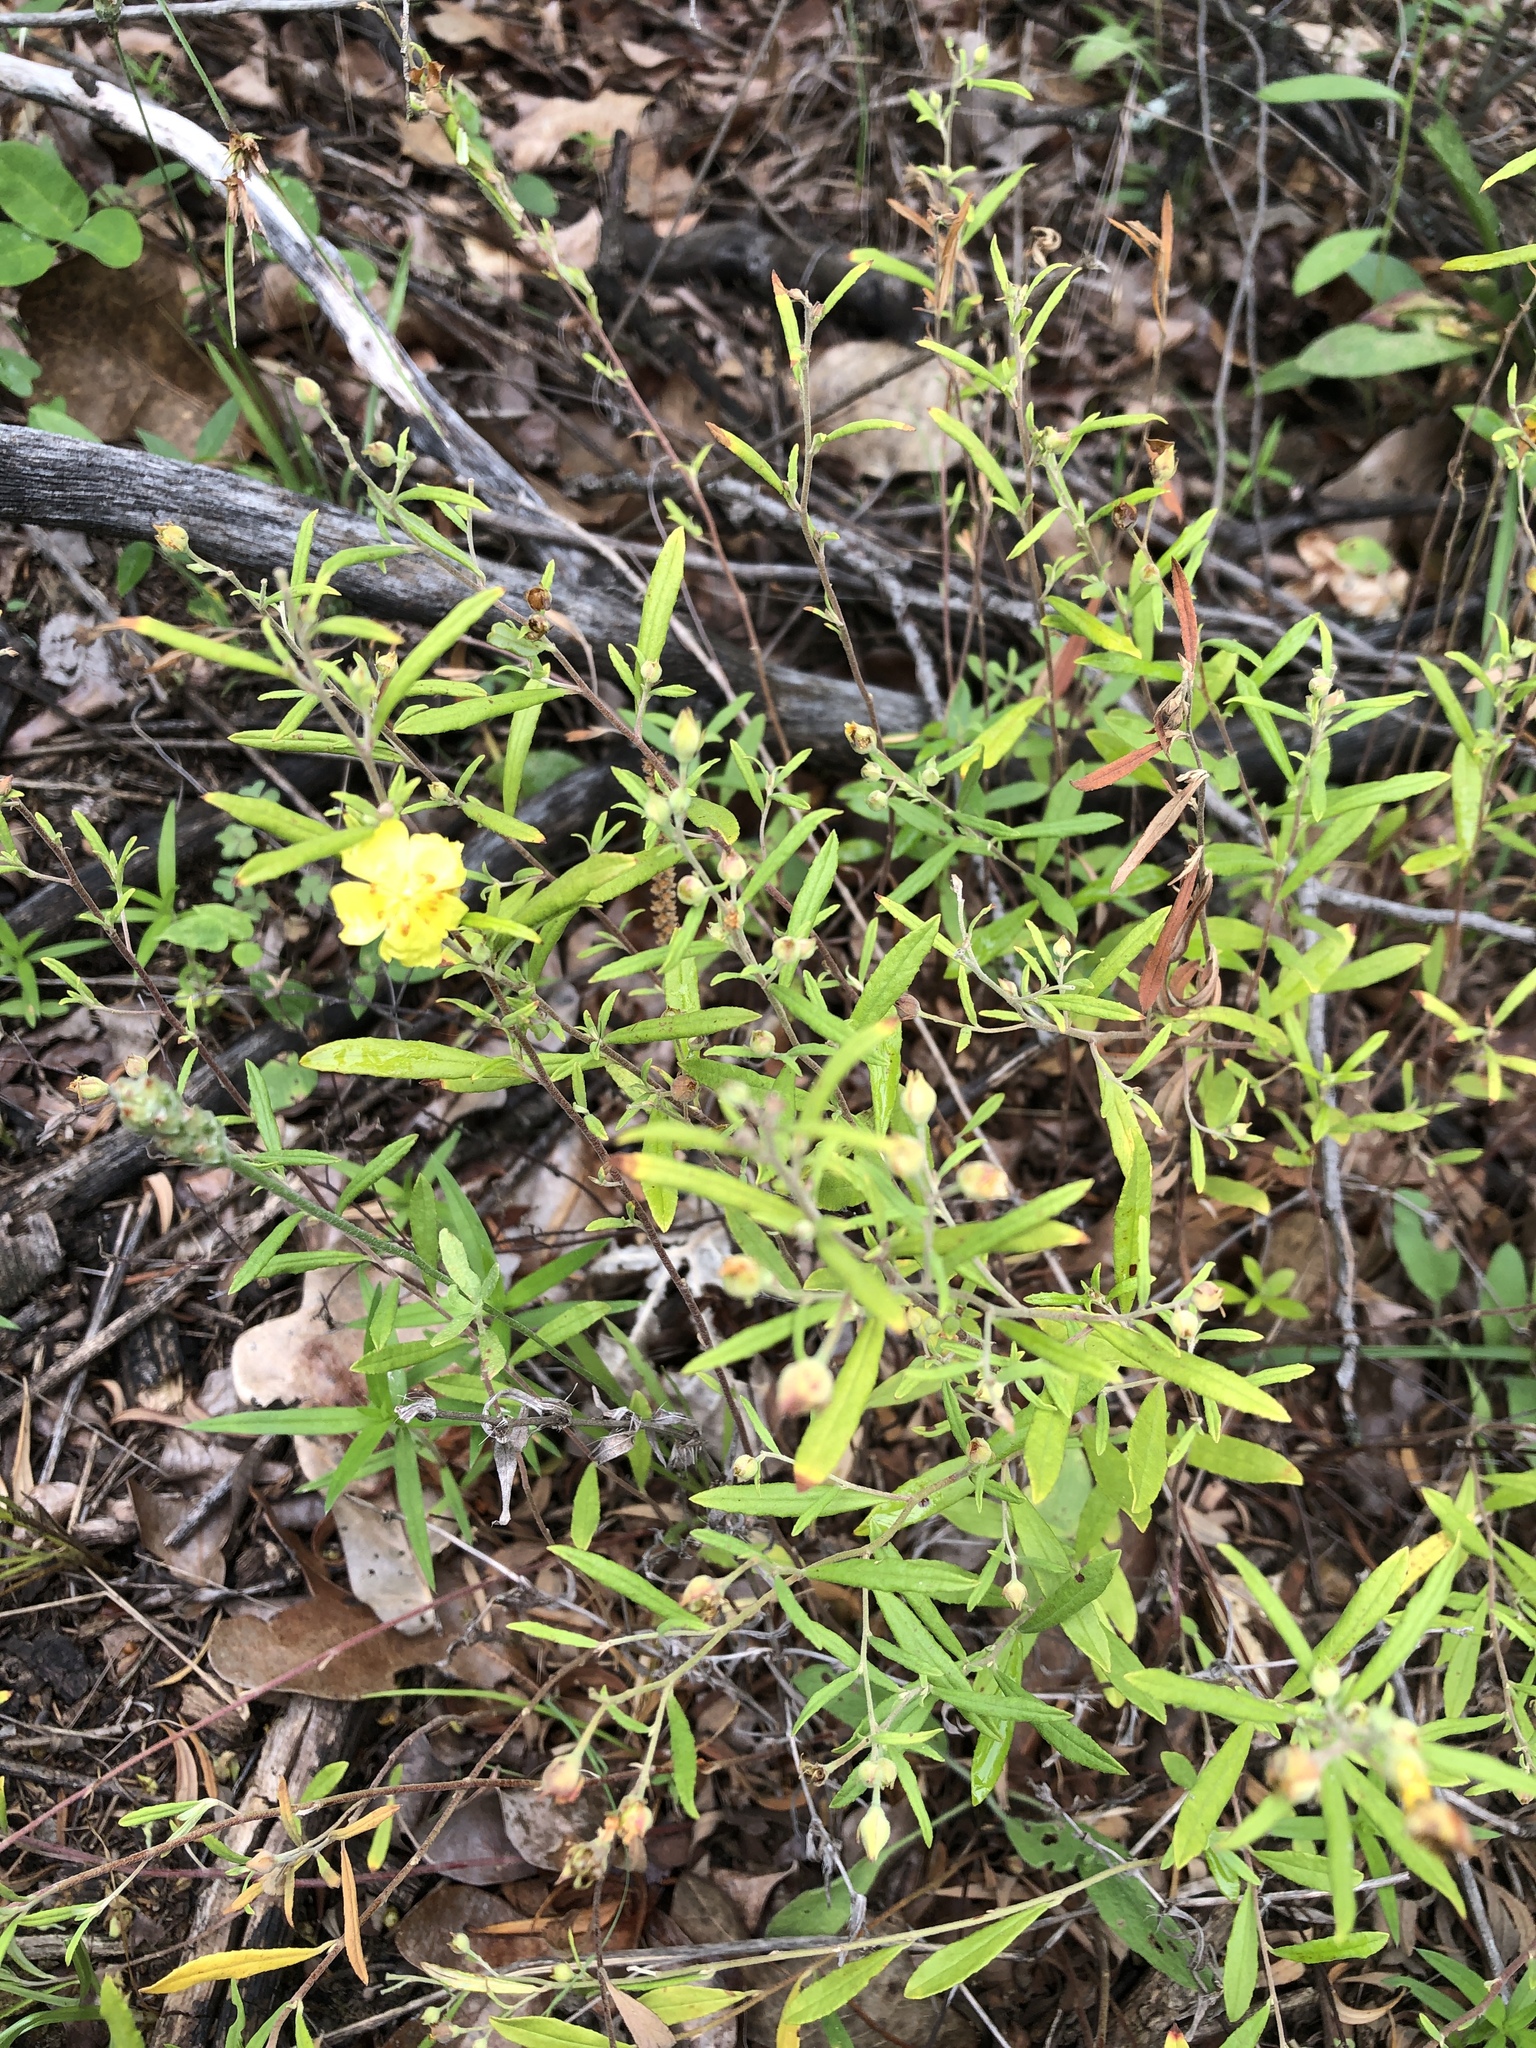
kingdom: Plantae
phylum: Tracheophyta
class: Magnoliopsida
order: Malvales
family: Cistaceae
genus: Crocanthemum
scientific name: Crocanthemum georgianum
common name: Georgia frostweed
